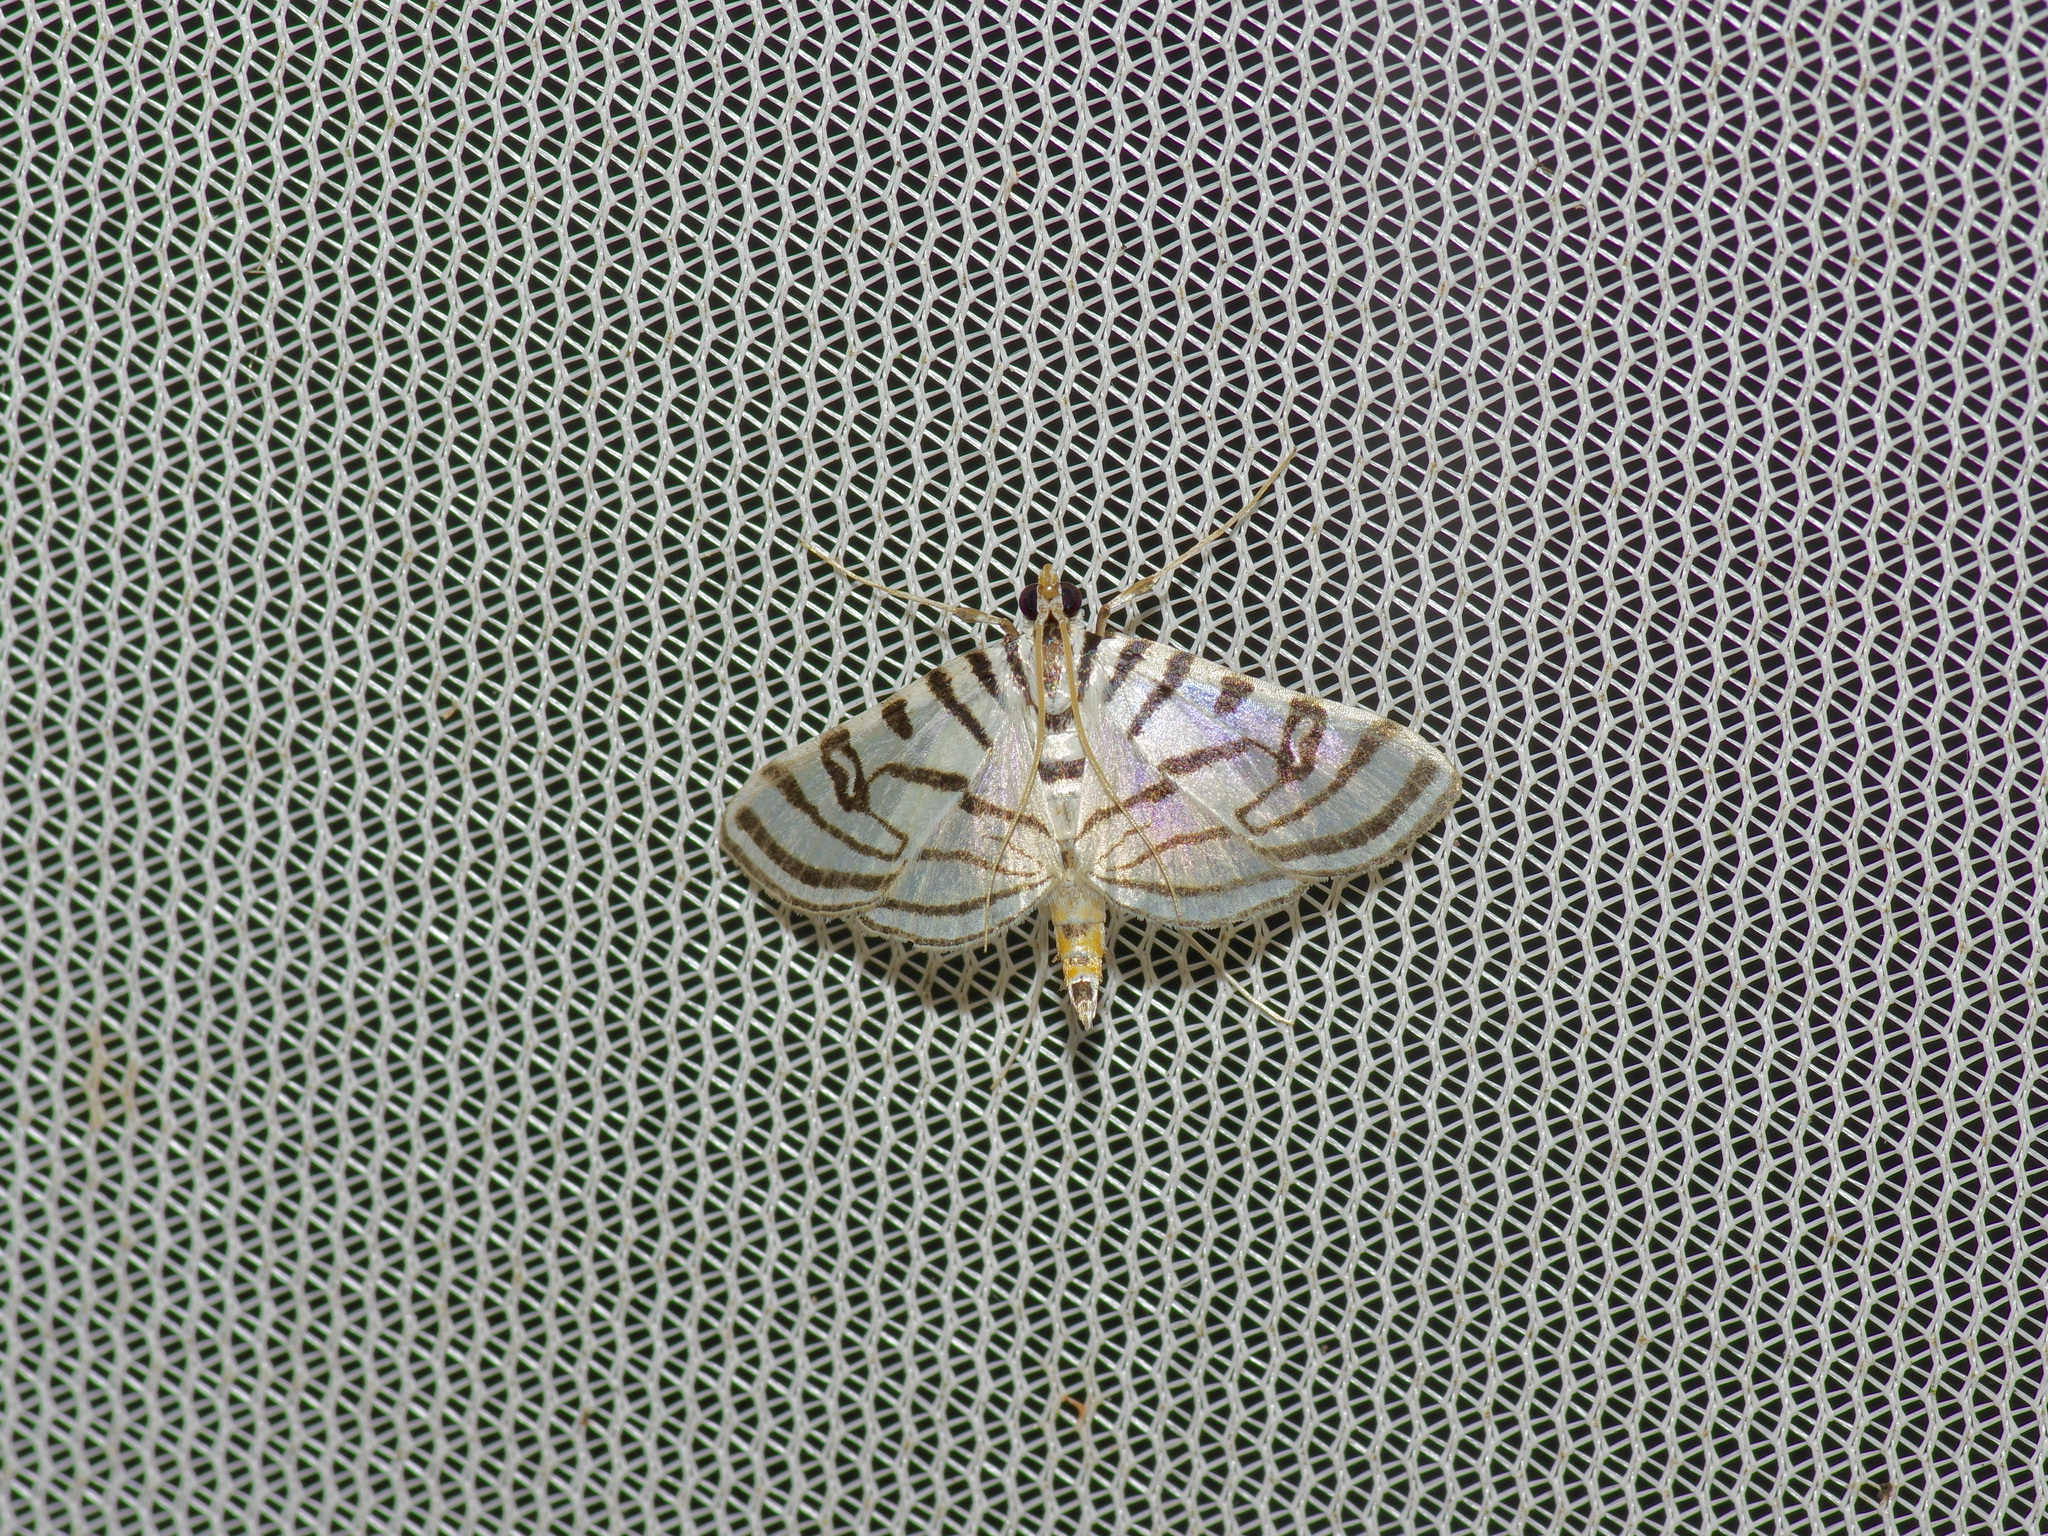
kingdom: Animalia
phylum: Arthropoda
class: Insecta
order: Lepidoptera
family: Crambidae
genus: Conchylodes
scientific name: Conchylodes ovulalis
